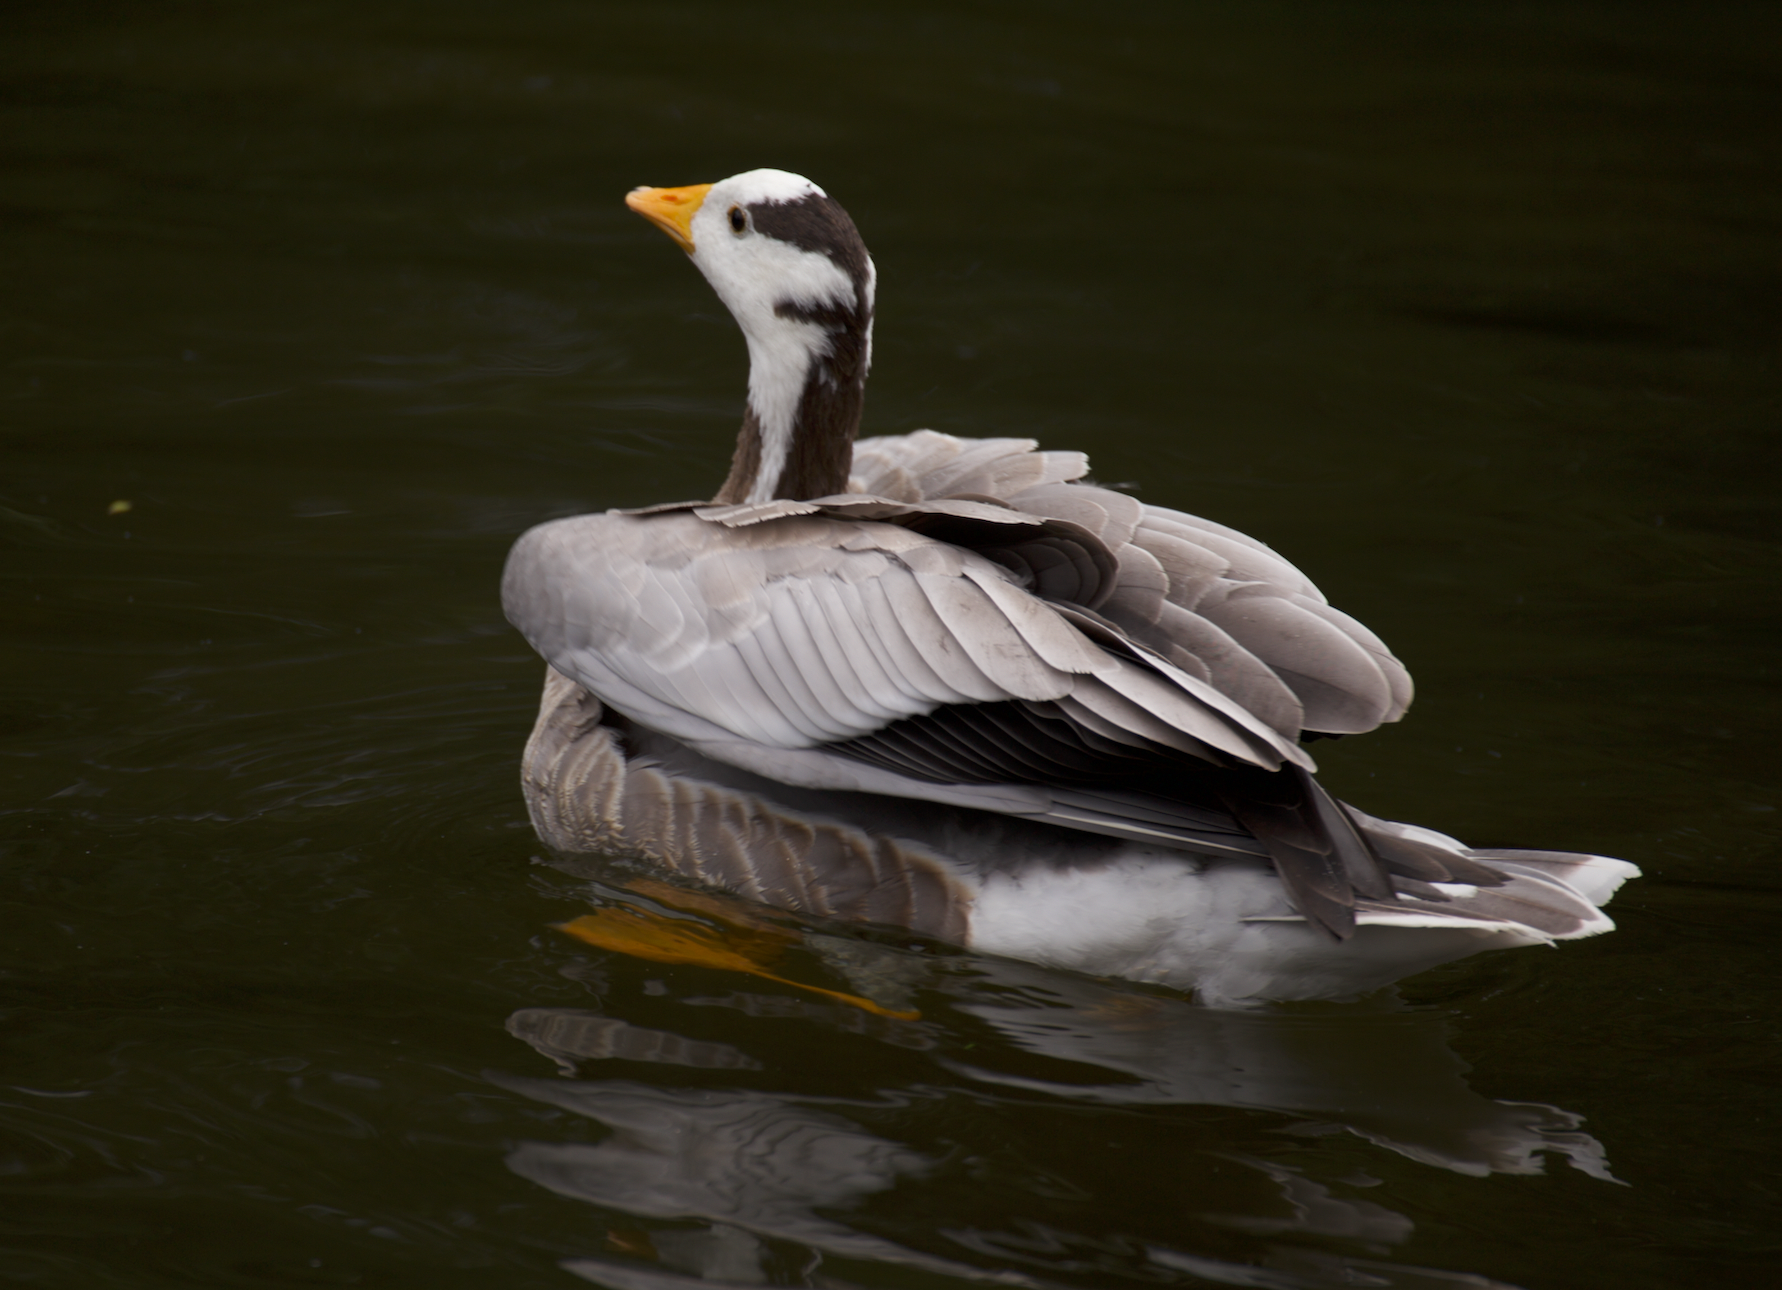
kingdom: Animalia
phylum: Chordata
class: Aves
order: Anseriformes
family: Anatidae
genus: Anser
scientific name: Anser indicus
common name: Bar-headed goose
